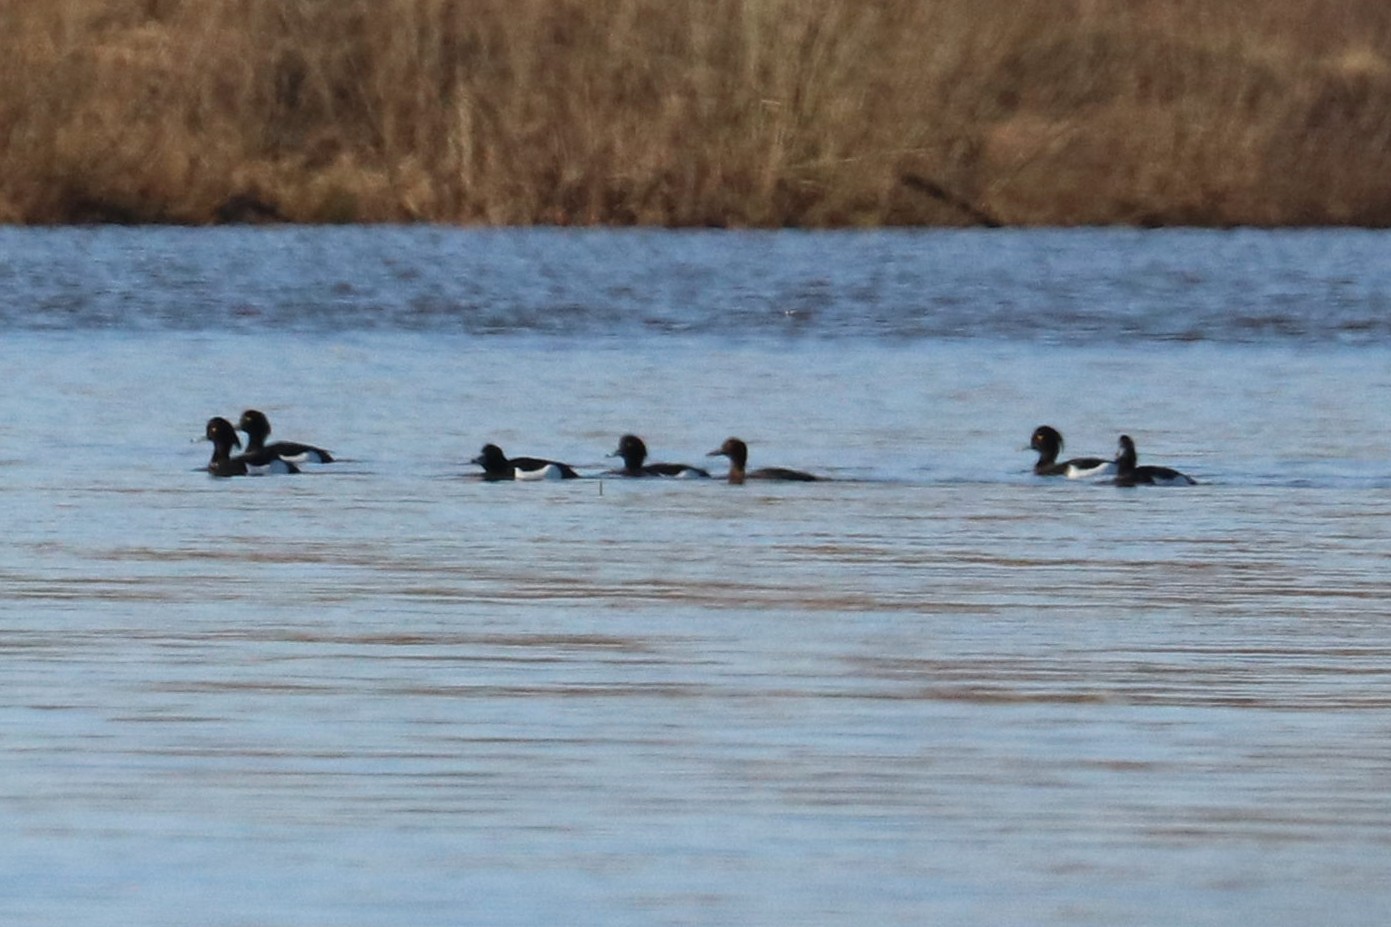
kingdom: Animalia
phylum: Chordata
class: Aves
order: Anseriformes
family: Anatidae
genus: Aythya
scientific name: Aythya fuligula
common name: Tufted duck
